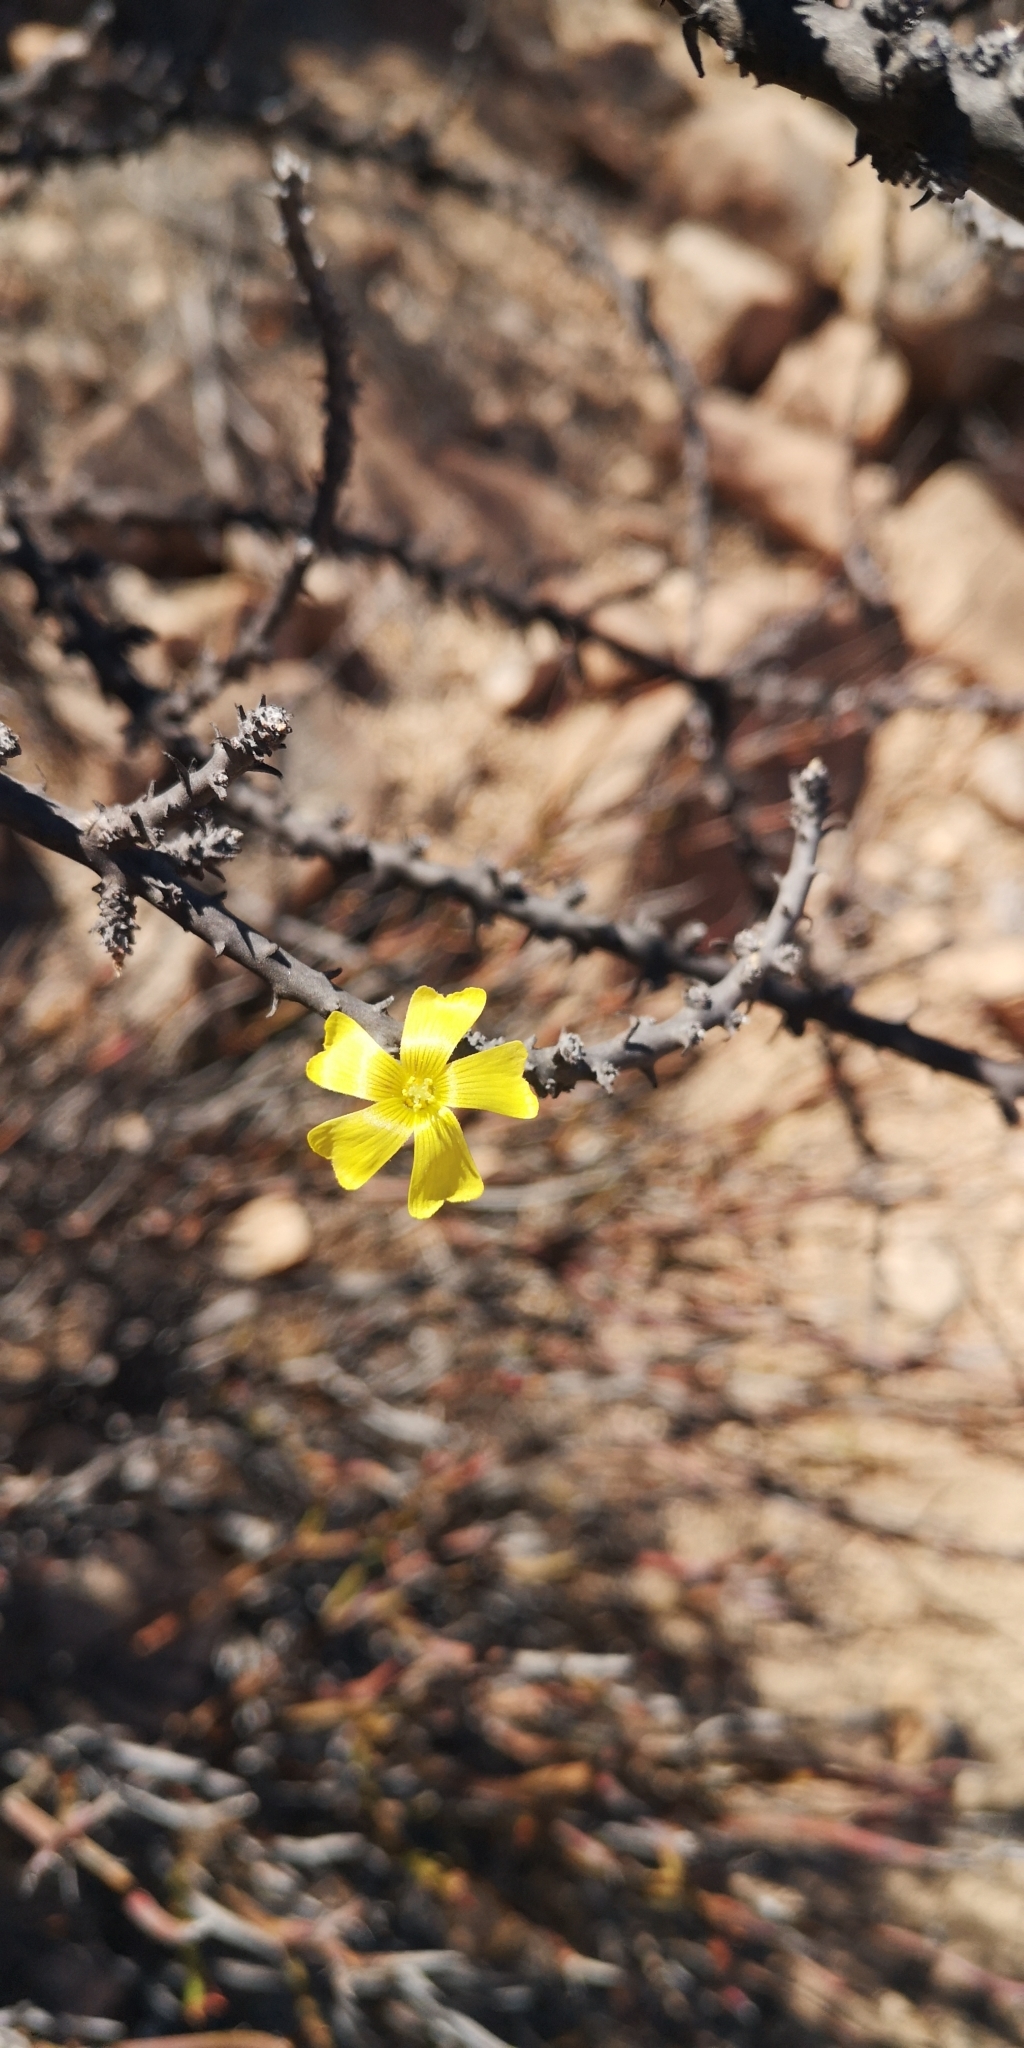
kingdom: Plantae
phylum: Tracheophyta
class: Magnoliopsida
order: Oxalidales
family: Oxalidaceae
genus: Oxalis
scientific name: Oxalis gigantea
